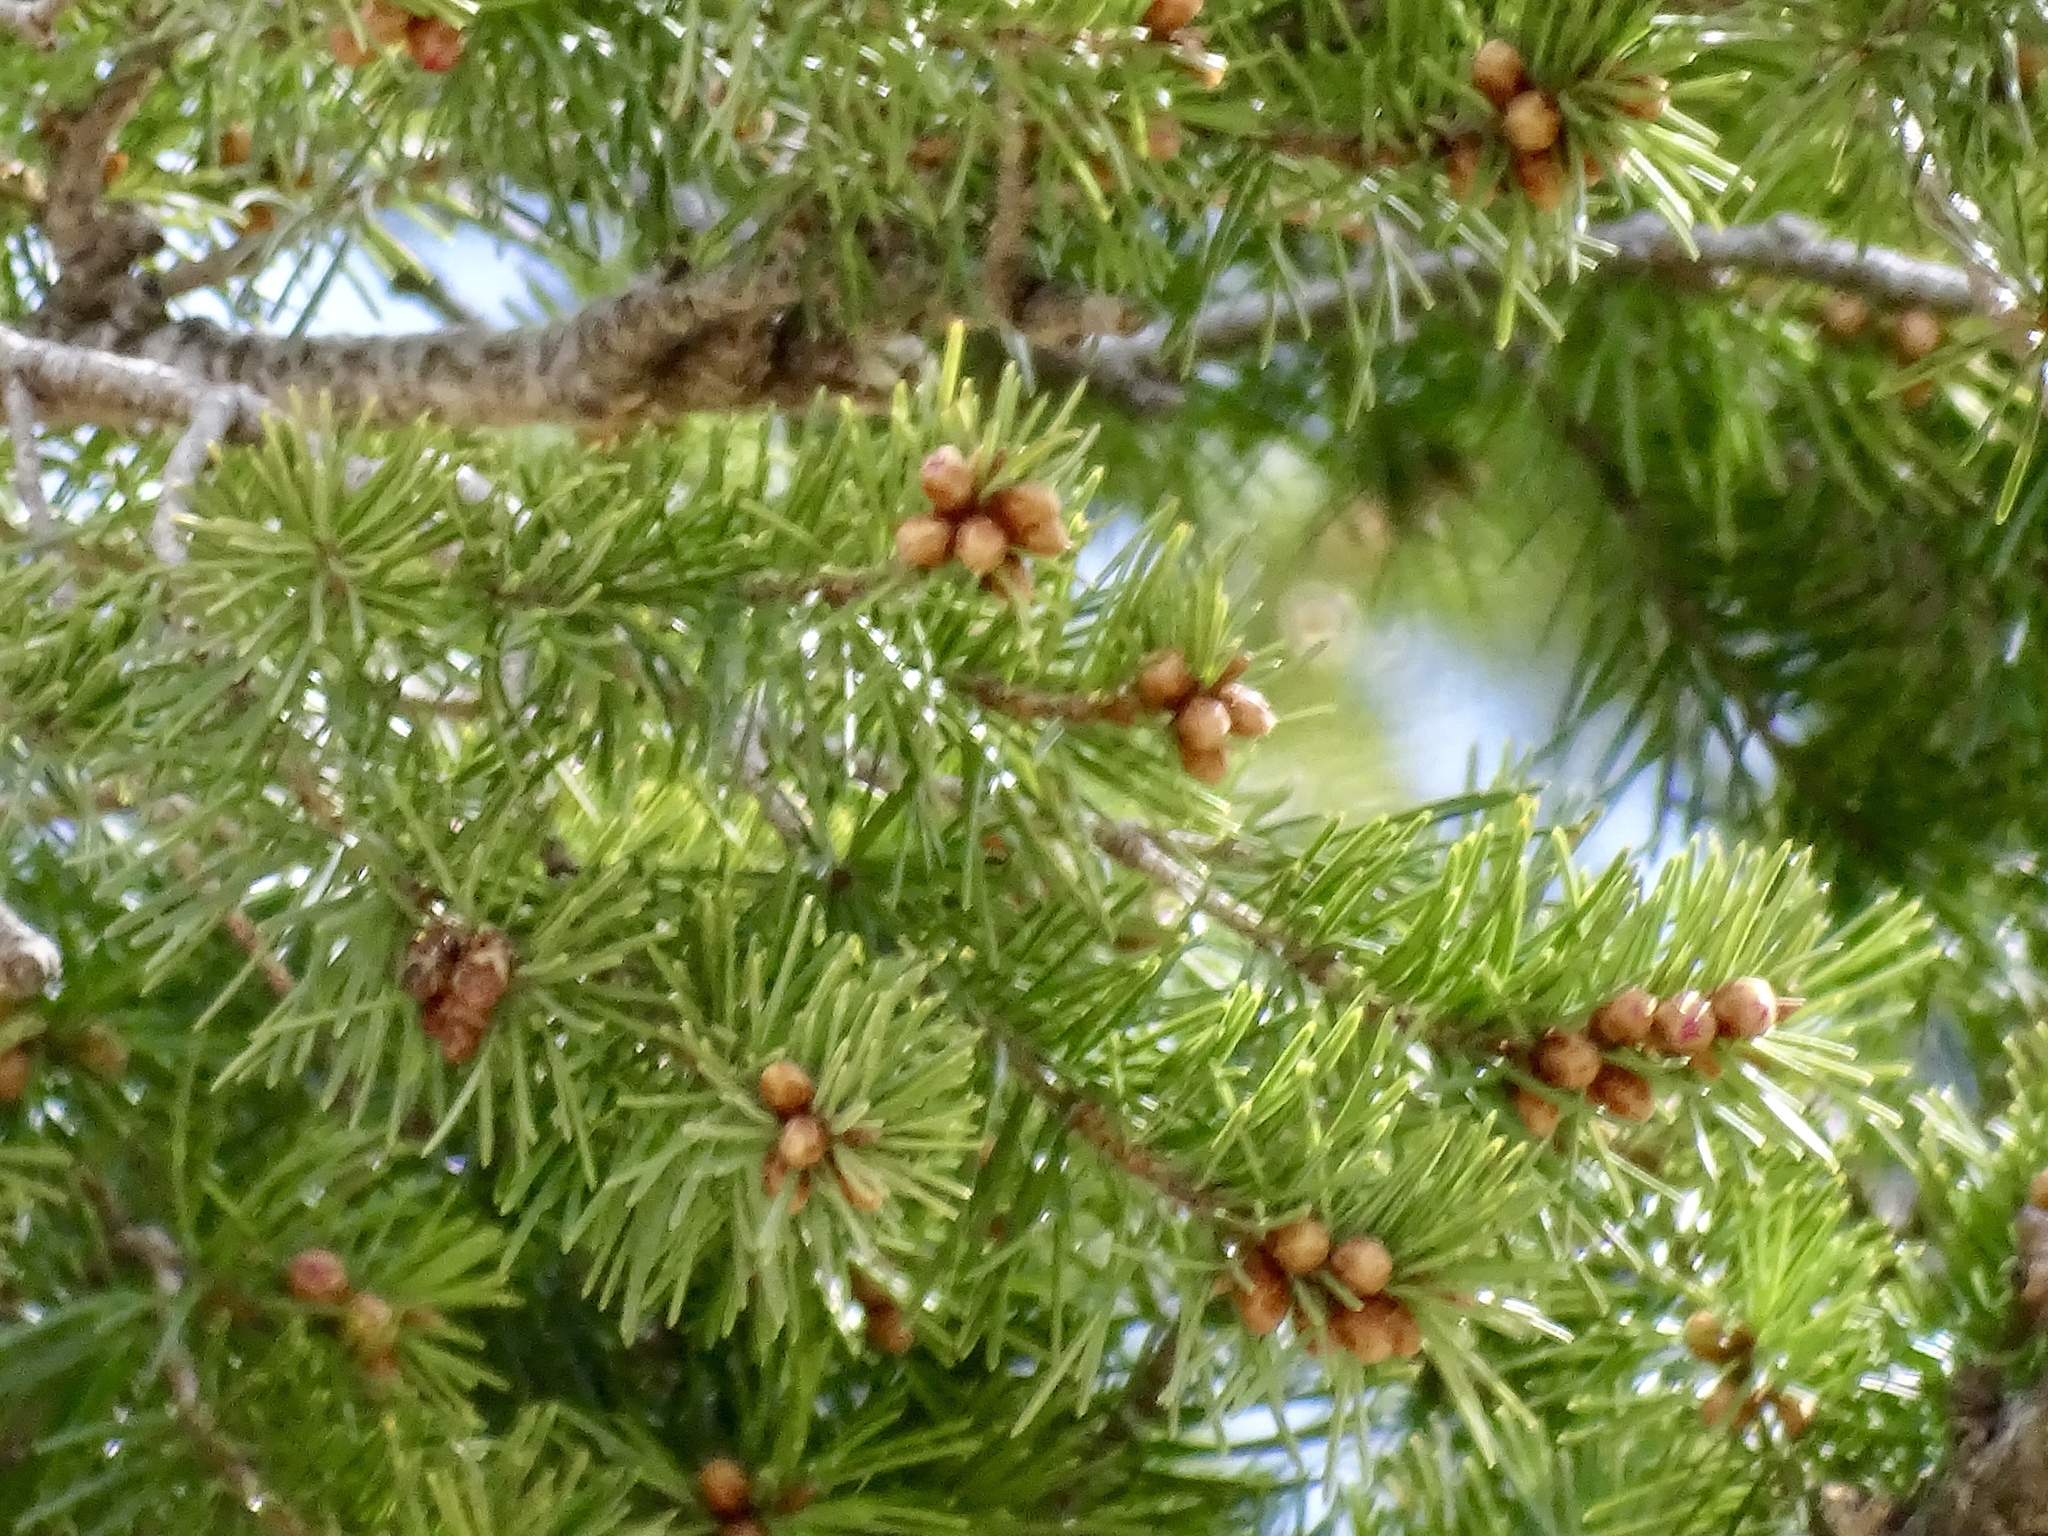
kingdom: Plantae
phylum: Tracheophyta
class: Pinopsida
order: Pinales
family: Pinaceae
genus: Pseudotsuga
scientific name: Pseudotsuga menziesii
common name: Douglas fir
